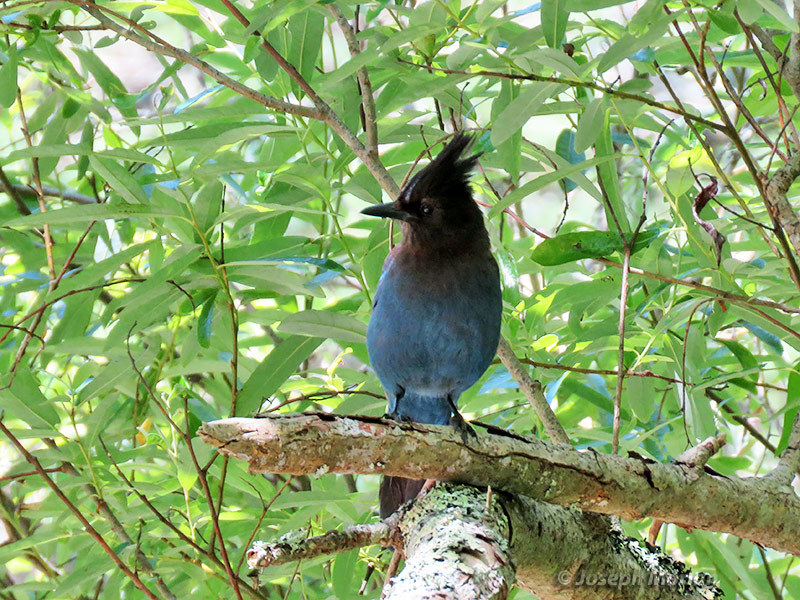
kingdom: Animalia
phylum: Chordata
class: Aves
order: Passeriformes
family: Corvidae
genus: Cyanocitta
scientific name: Cyanocitta stelleri
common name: Steller's jay
